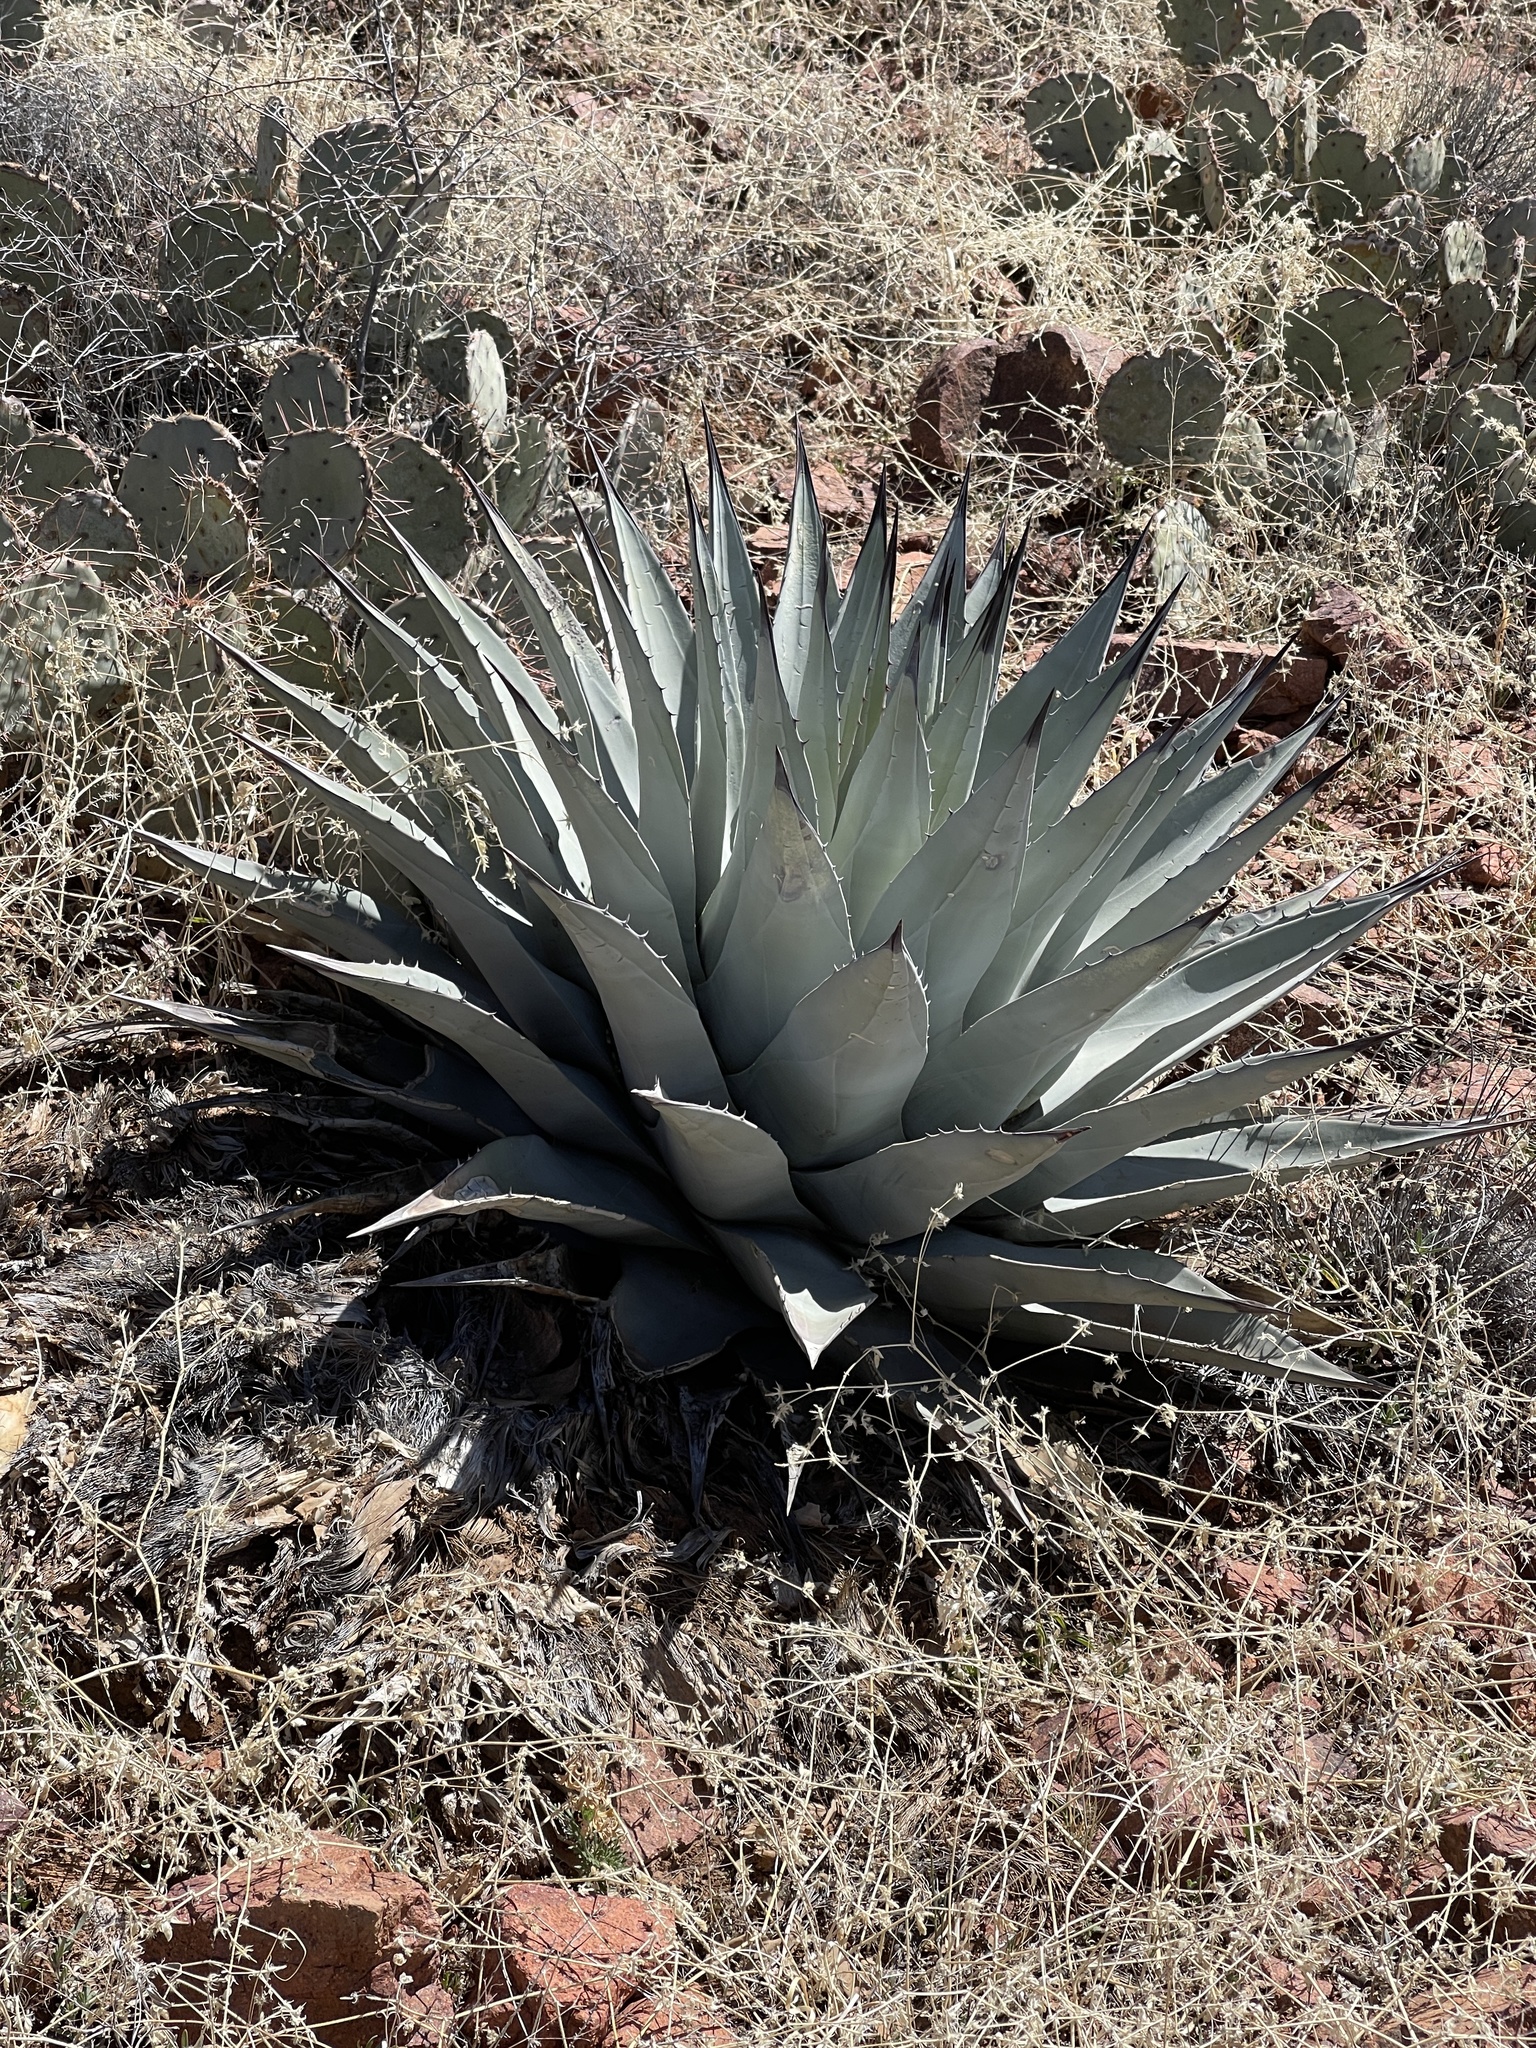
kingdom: Plantae
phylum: Tracheophyta
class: Liliopsida
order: Asparagales
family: Asparagaceae
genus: Agave
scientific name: Agave parryi
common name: Parry's agave
